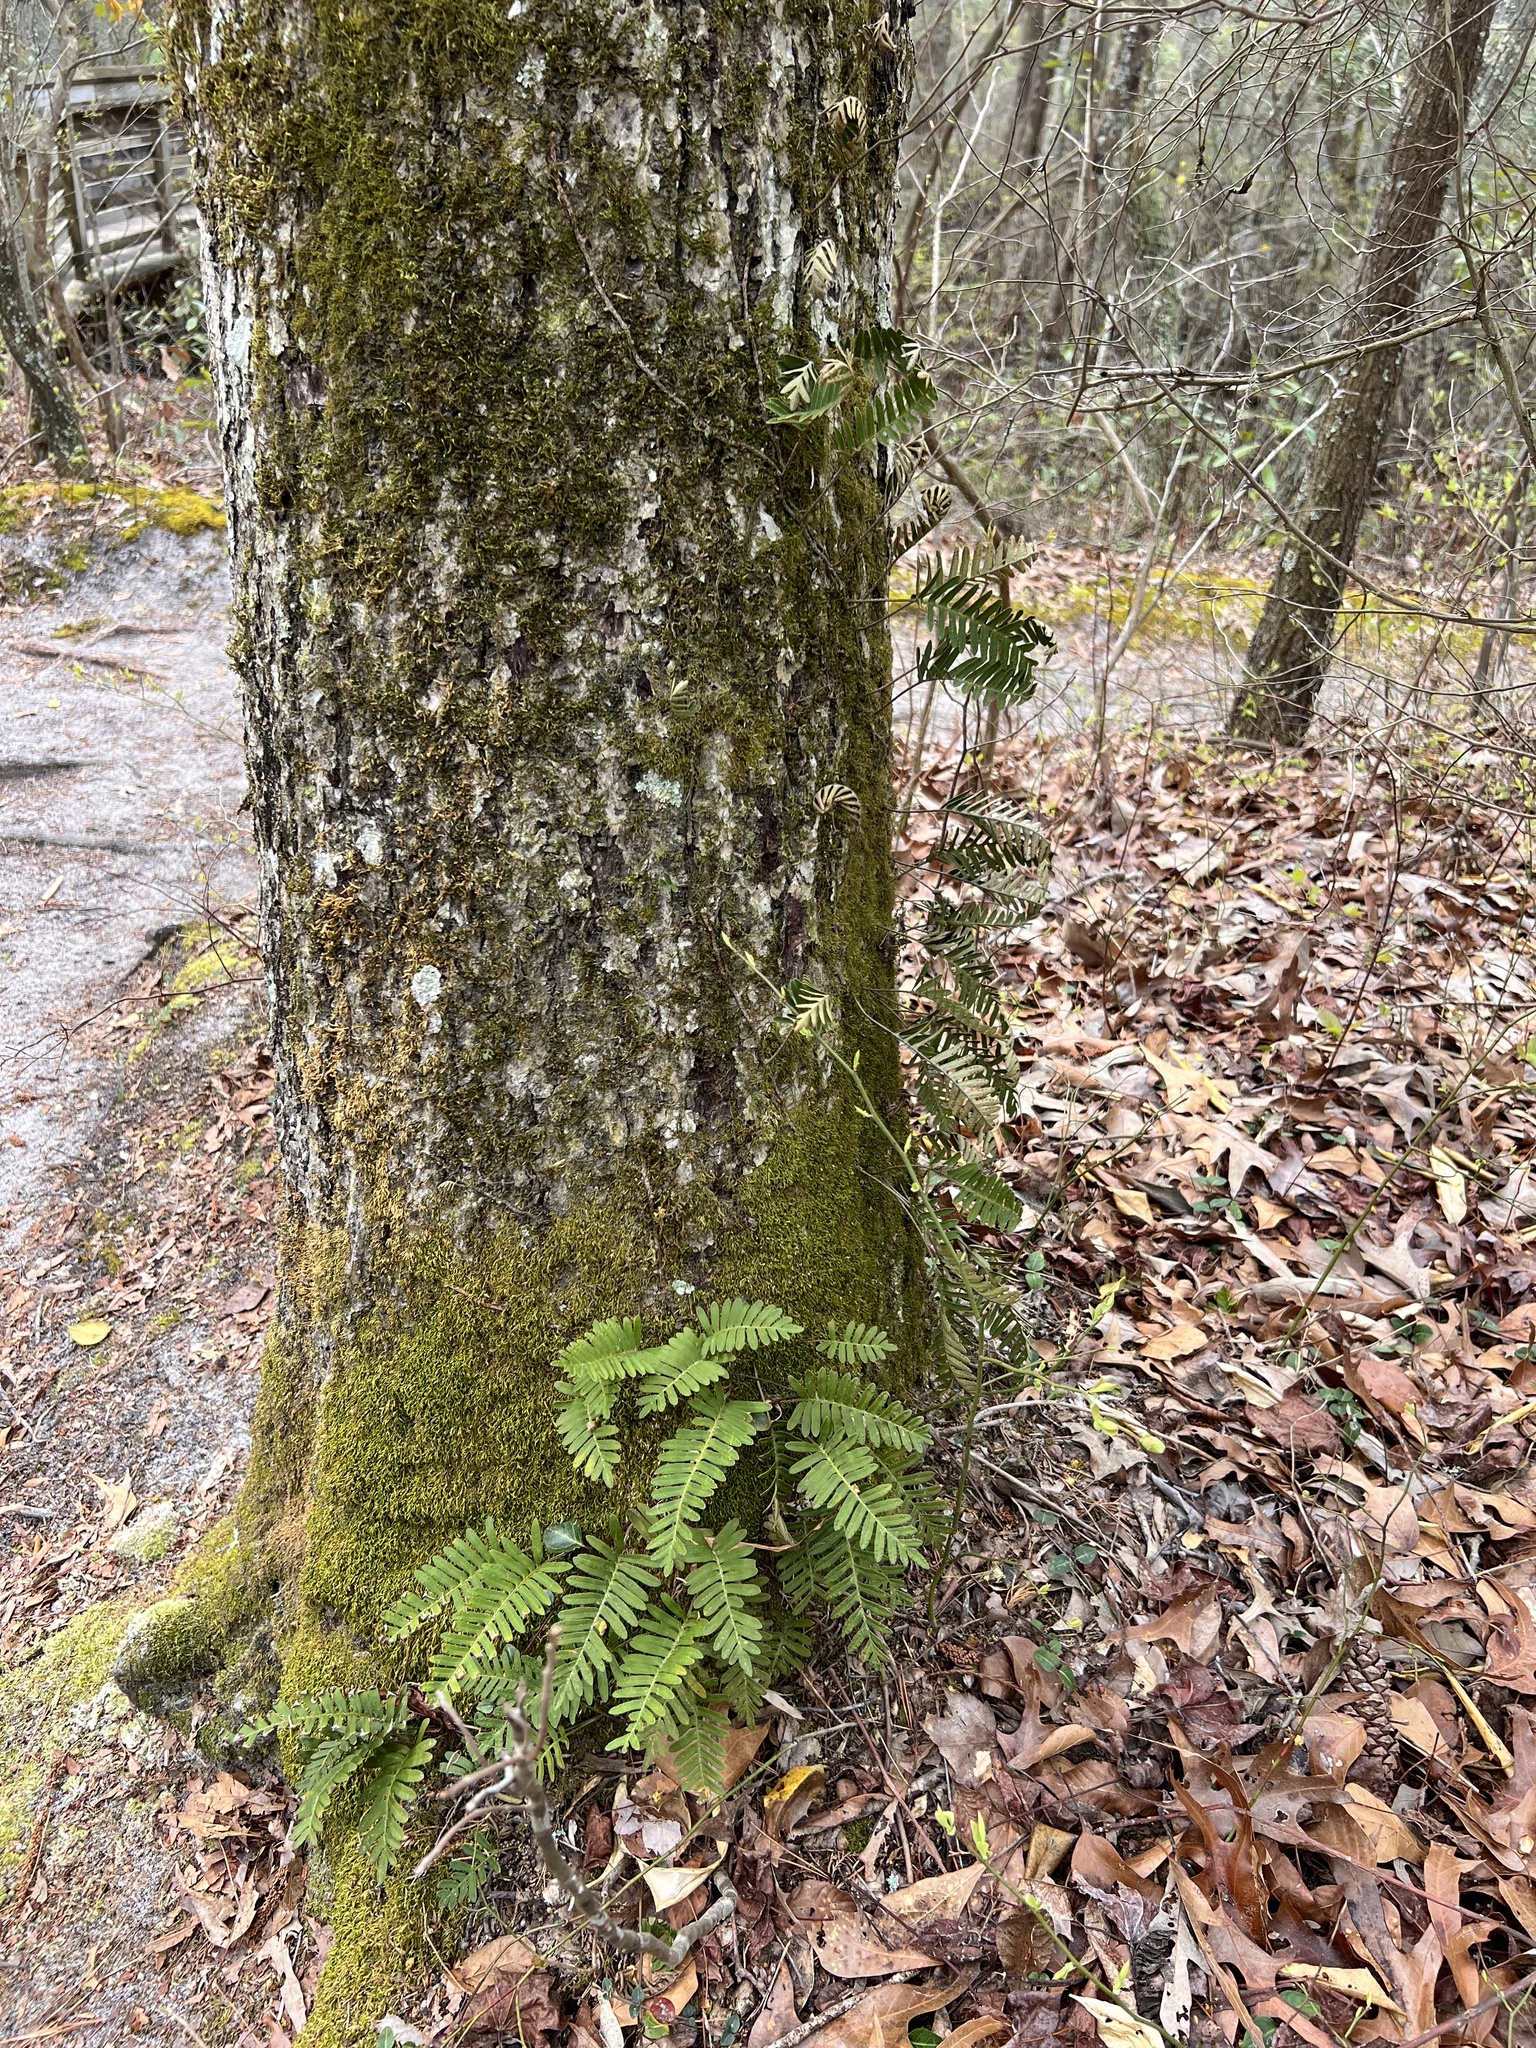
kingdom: Plantae
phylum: Tracheophyta
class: Polypodiopsida
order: Polypodiales
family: Polypodiaceae
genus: Pleopeltis
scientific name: Pleopeltis michauxiana
